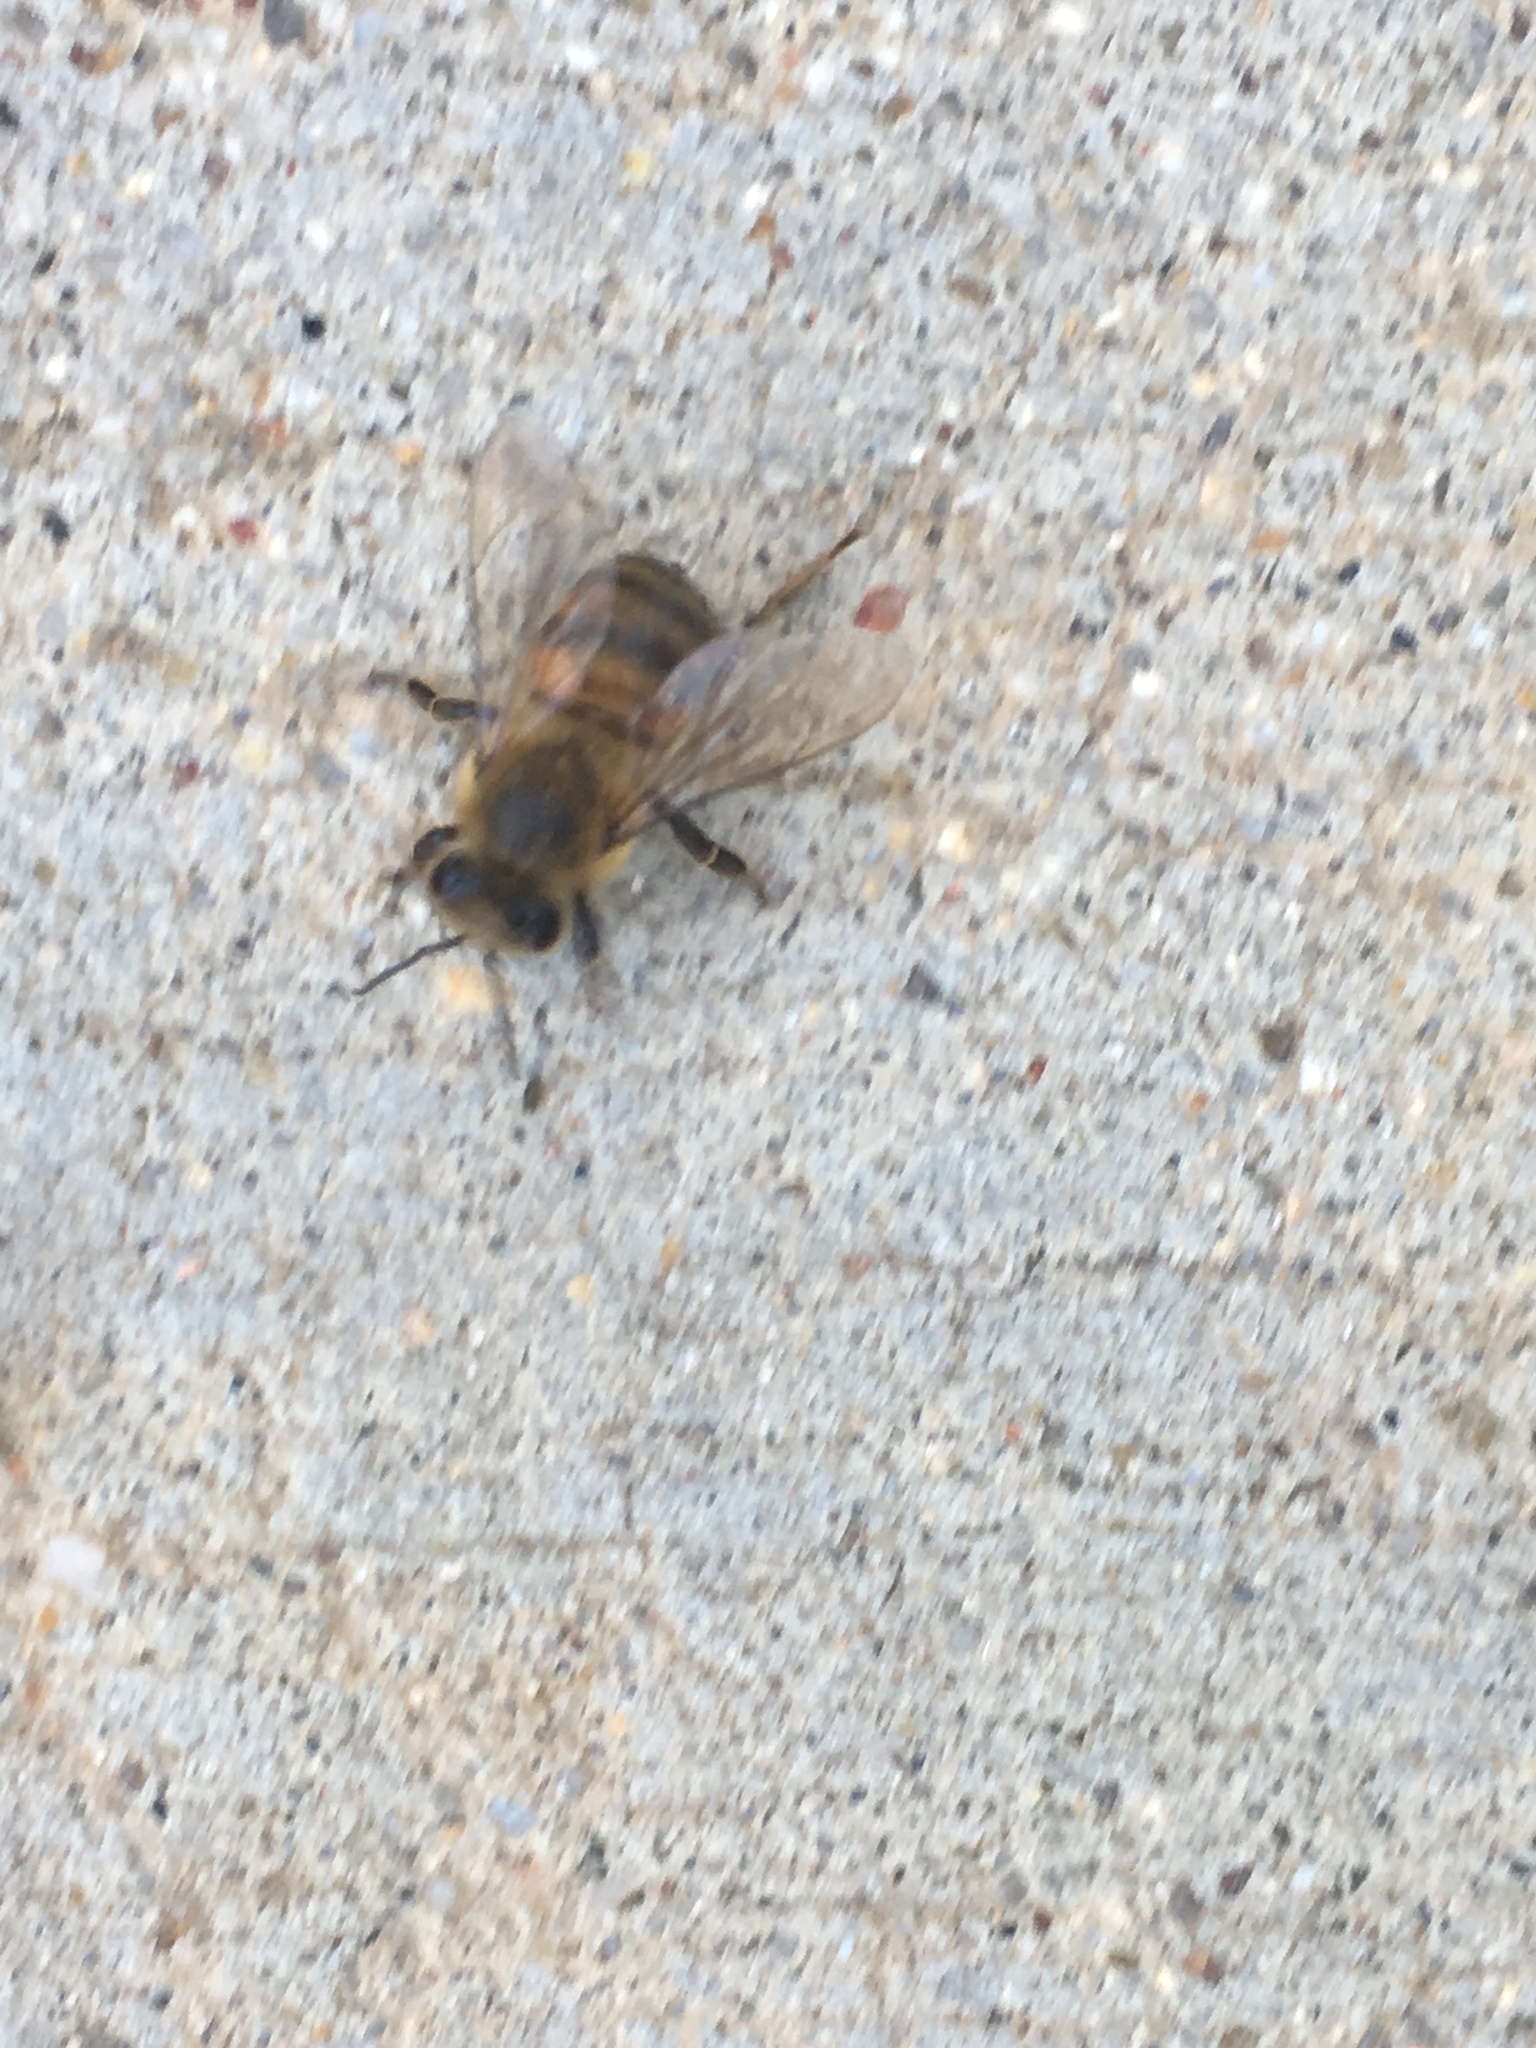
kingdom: Animalia
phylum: Arthropoda
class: Insecta
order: Hymenoptera
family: Apidae
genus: Apis
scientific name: Apis mellifera
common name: Honey bee
